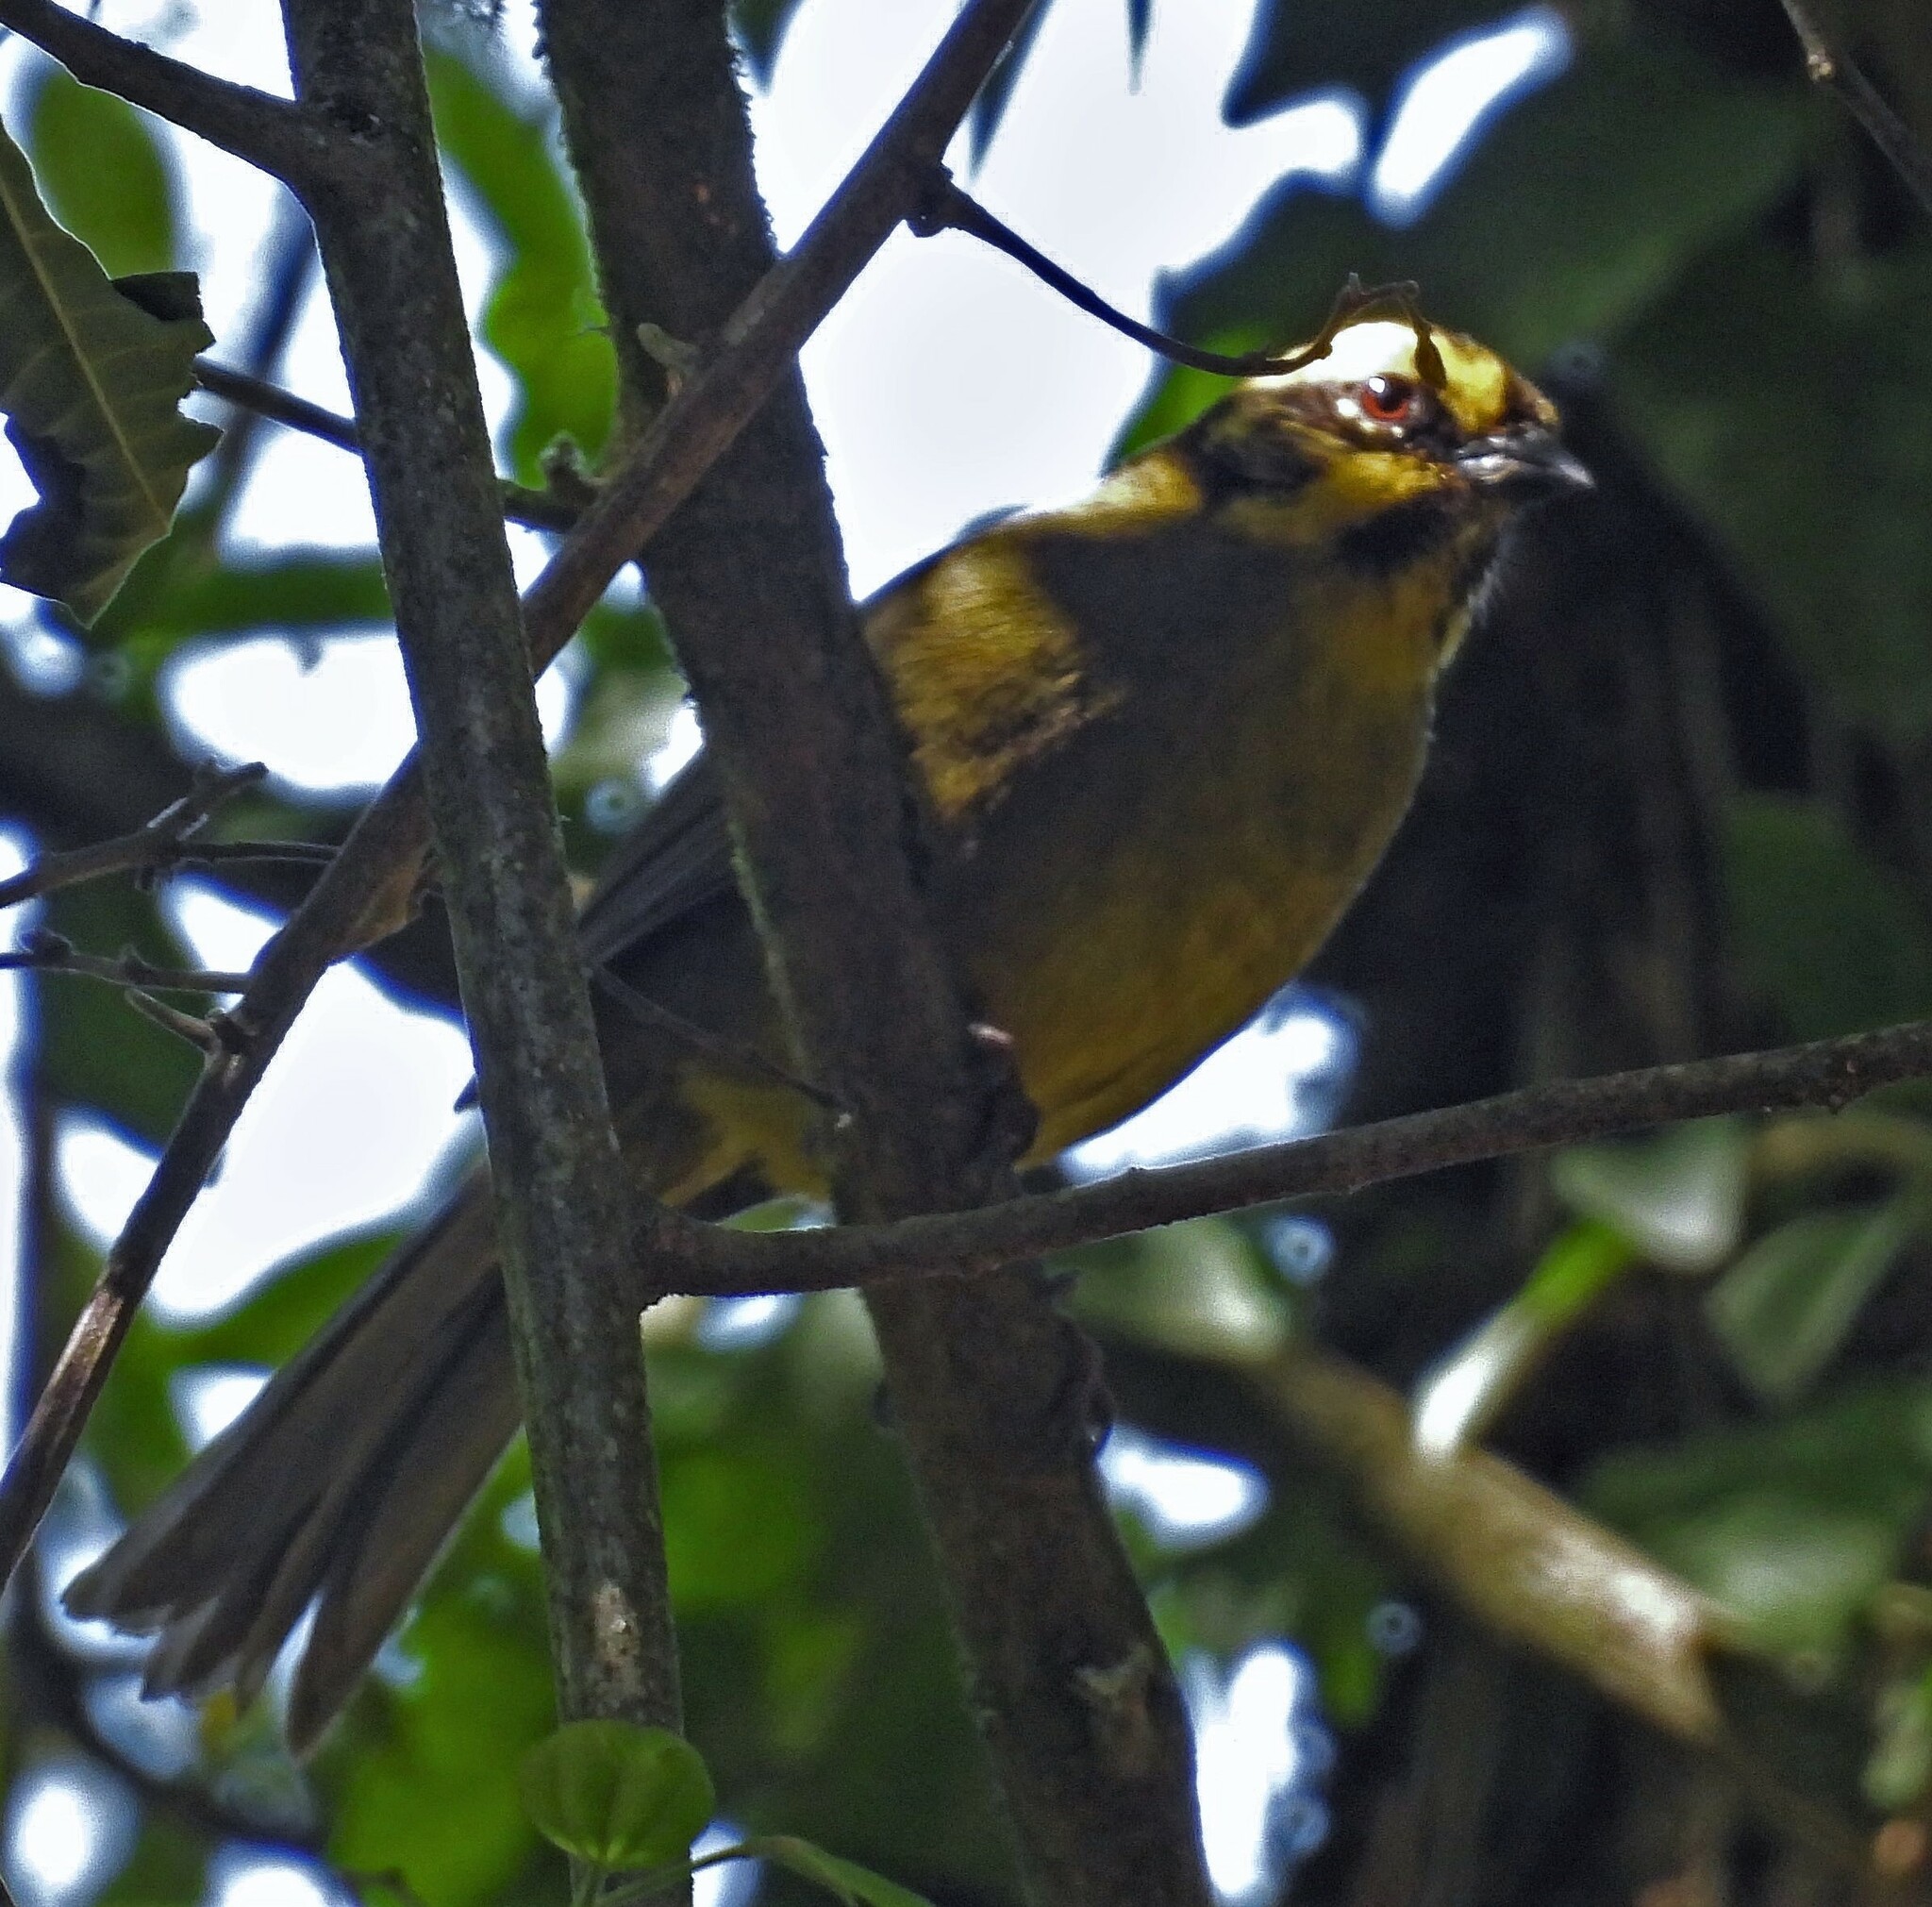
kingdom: Animalia
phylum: Chordata
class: Aves
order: Passeriformes
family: Passerellidae
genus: Atlapetes
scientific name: Atlapetes citrinellus
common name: Yellow-striped brushfinch
